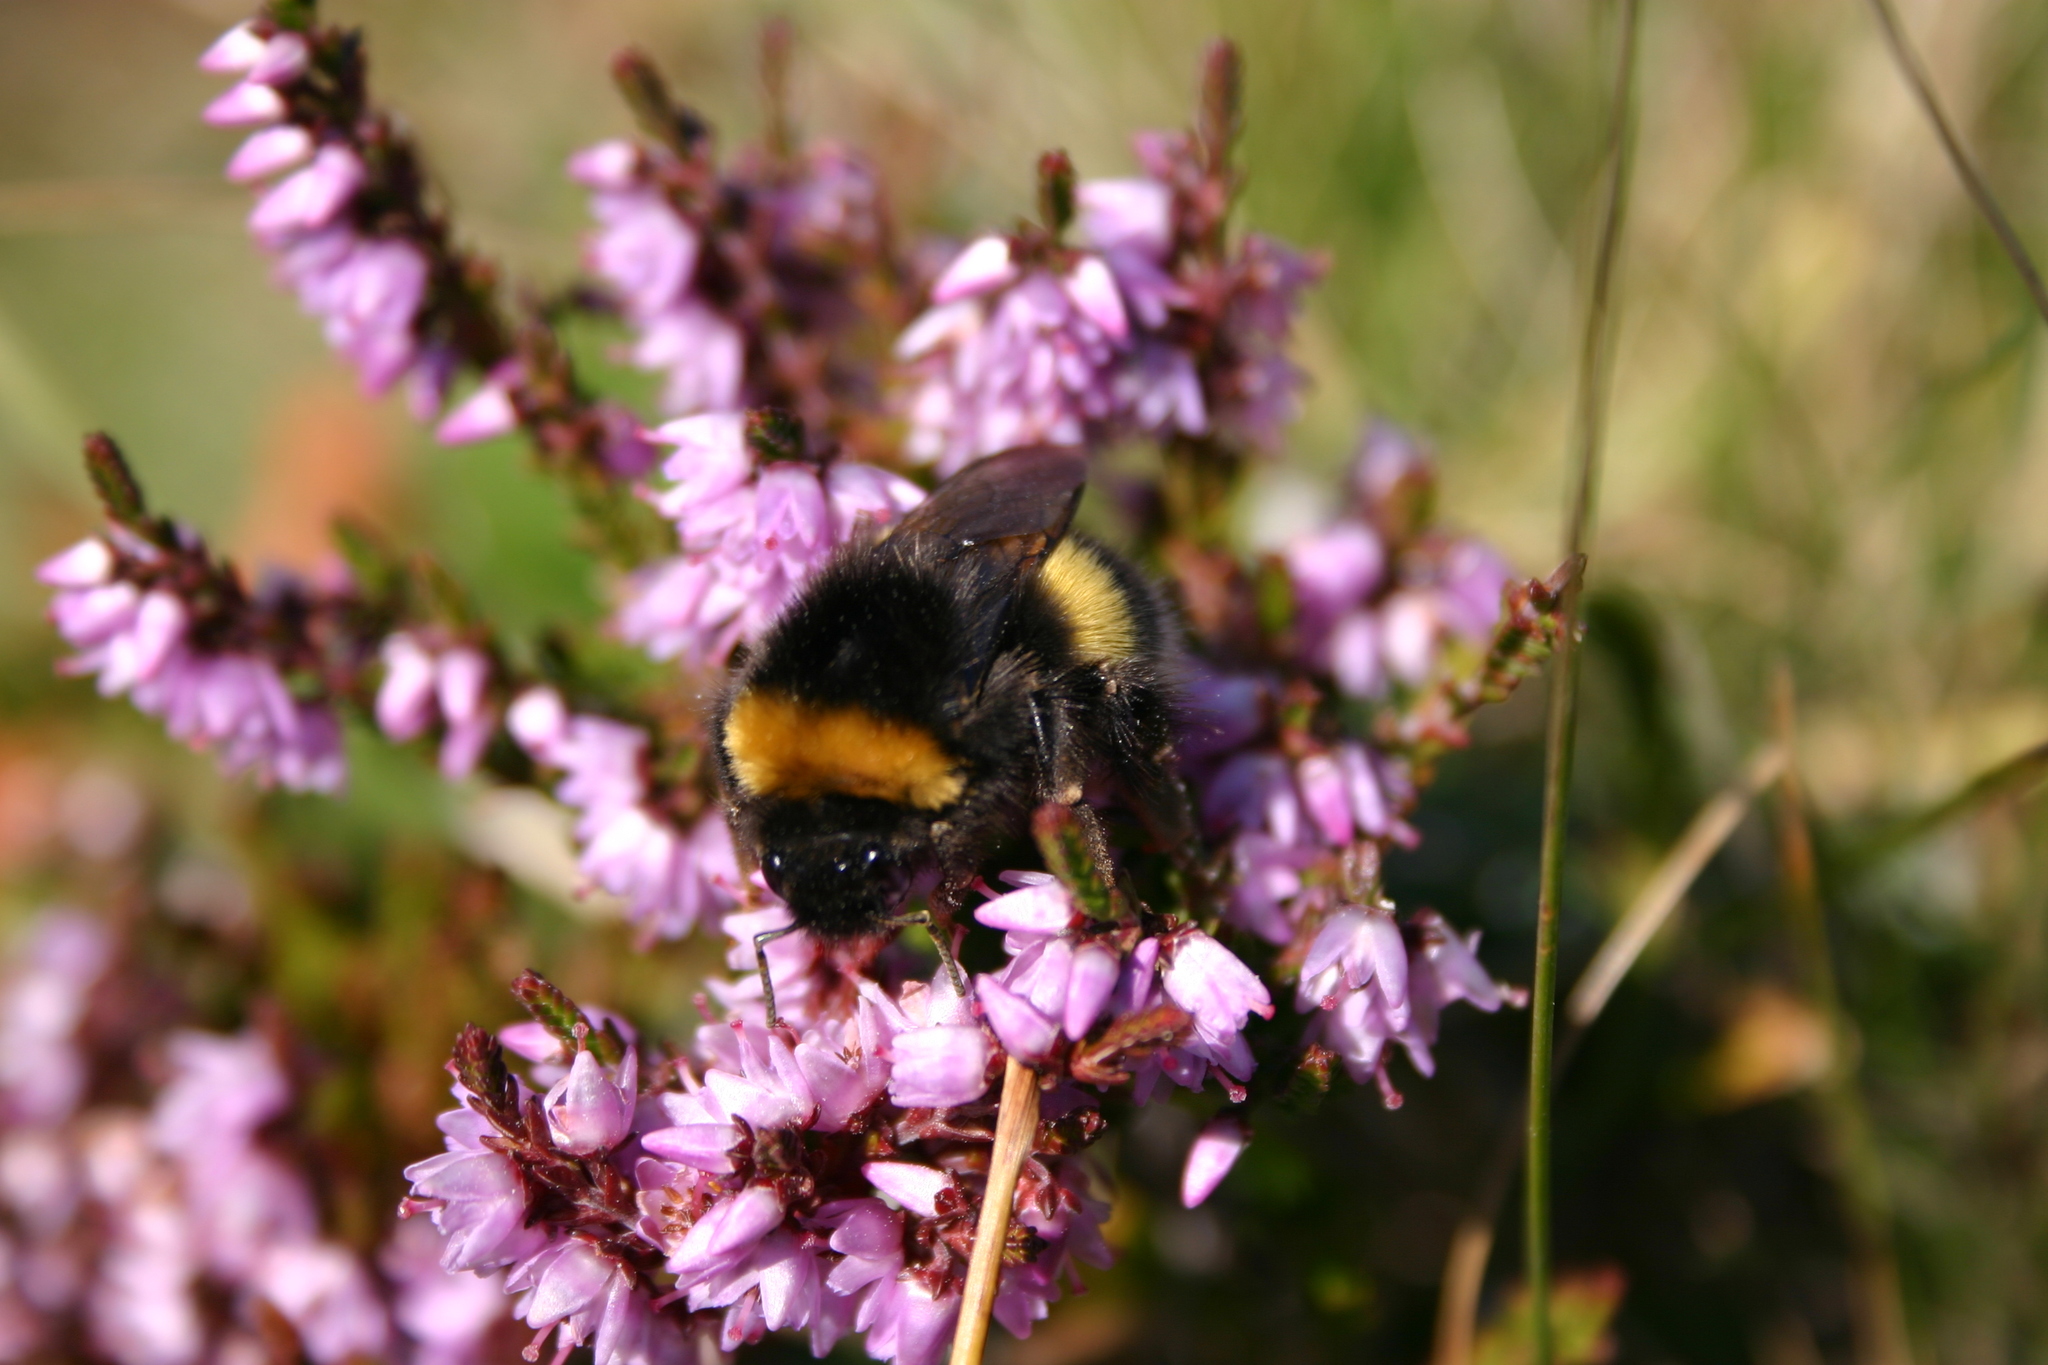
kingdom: Plantae
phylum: Tracheophyta
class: Magnoliopsida
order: Ericales
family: Ericaceae
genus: Calluna
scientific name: Calluna vulgaris
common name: Heather
